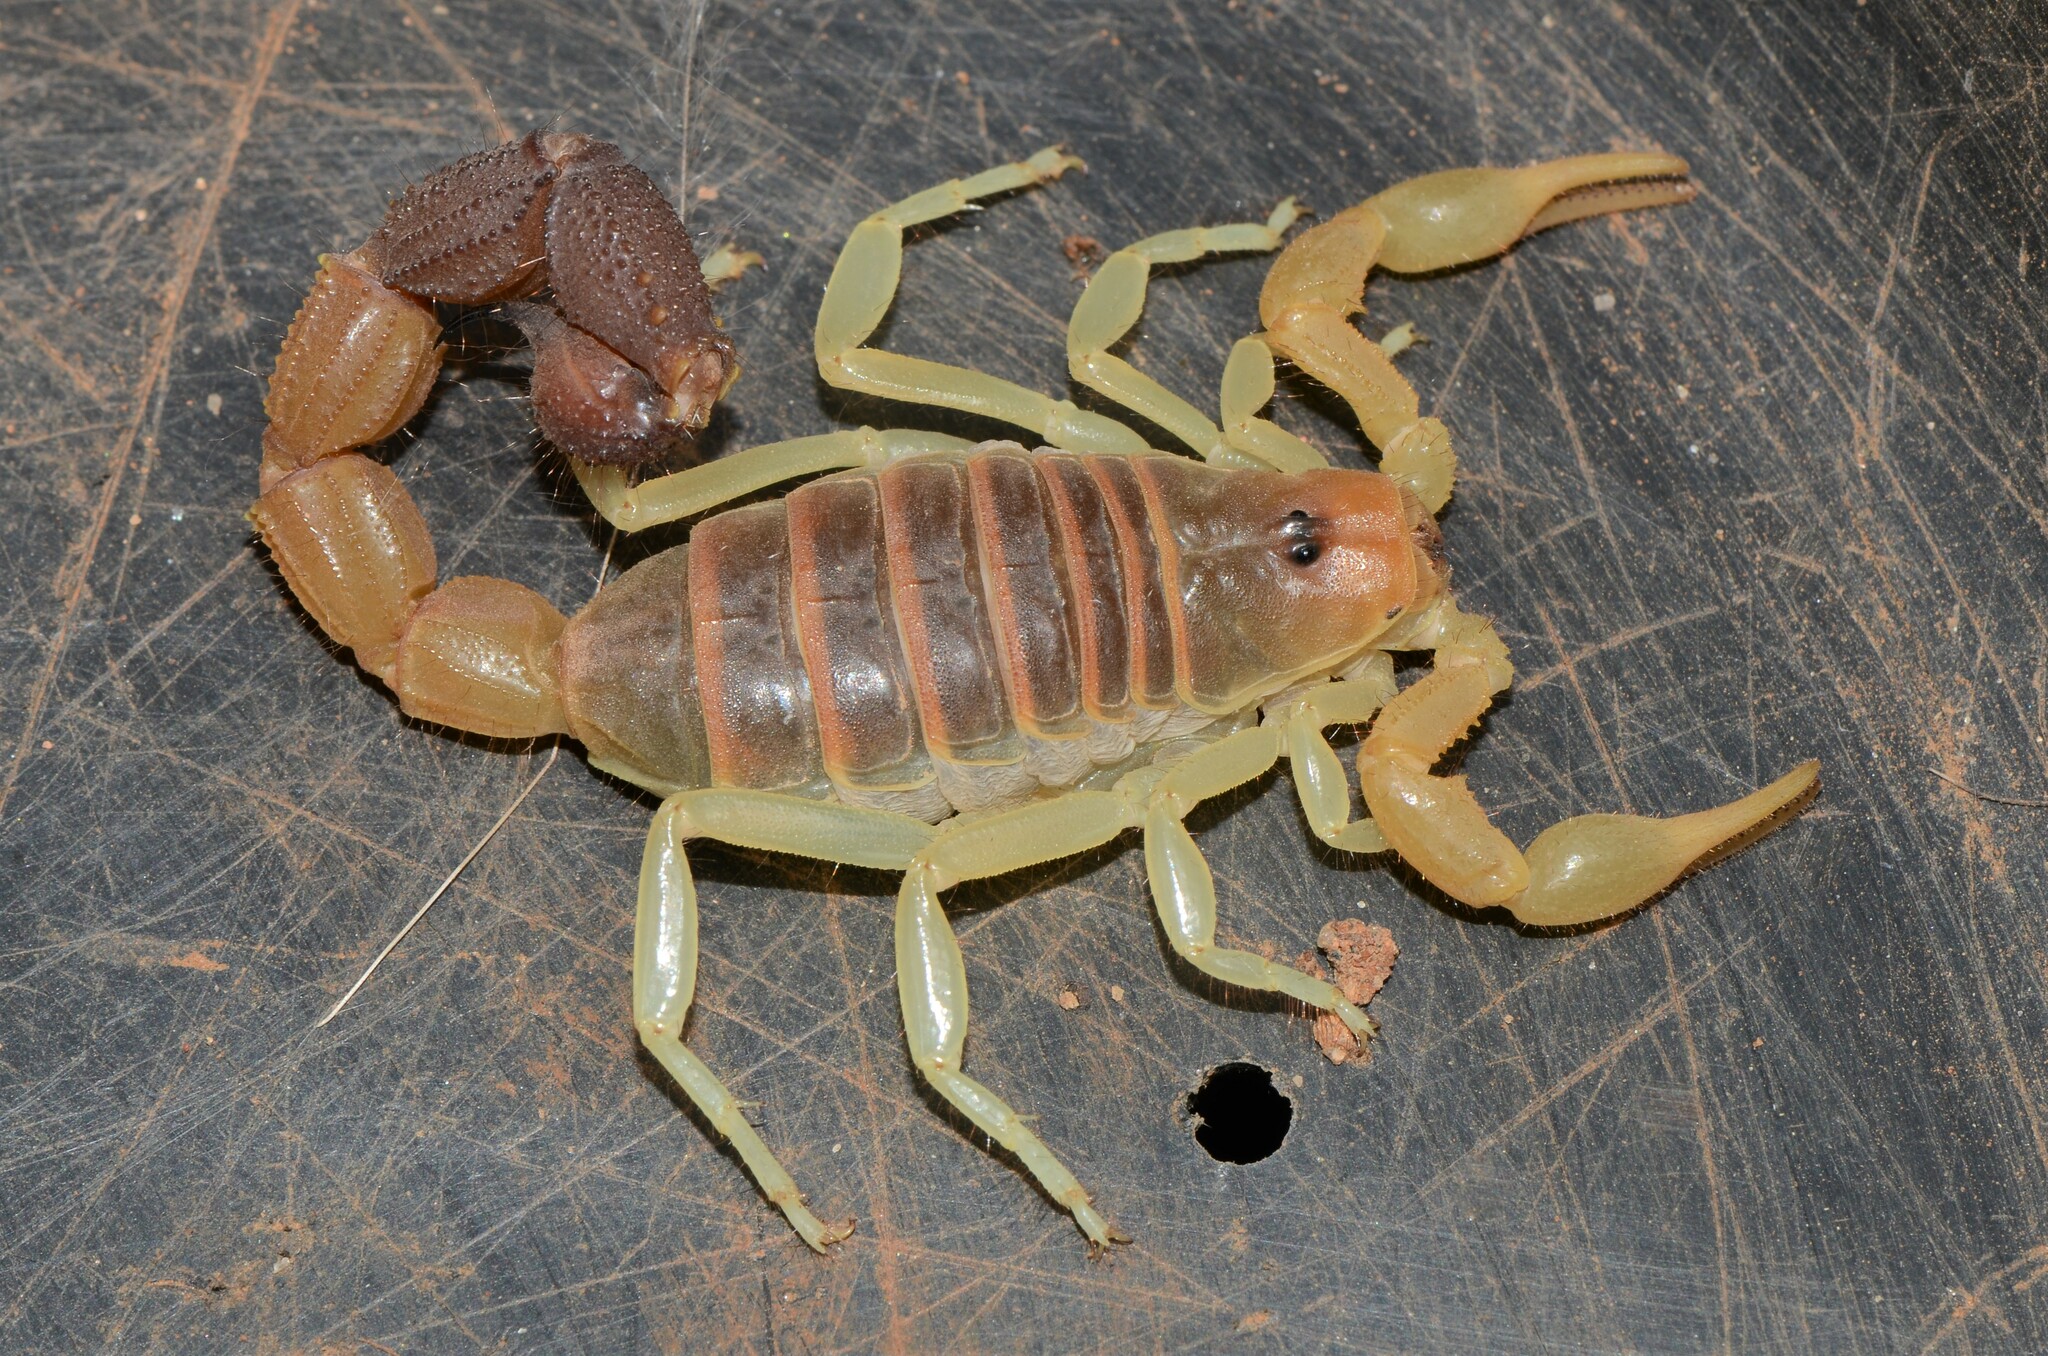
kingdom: Animalia
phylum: Arthropoda
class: Arachnida
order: Scorpiones
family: Buthidae
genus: Parabuthus
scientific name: Parabuthus capensis
